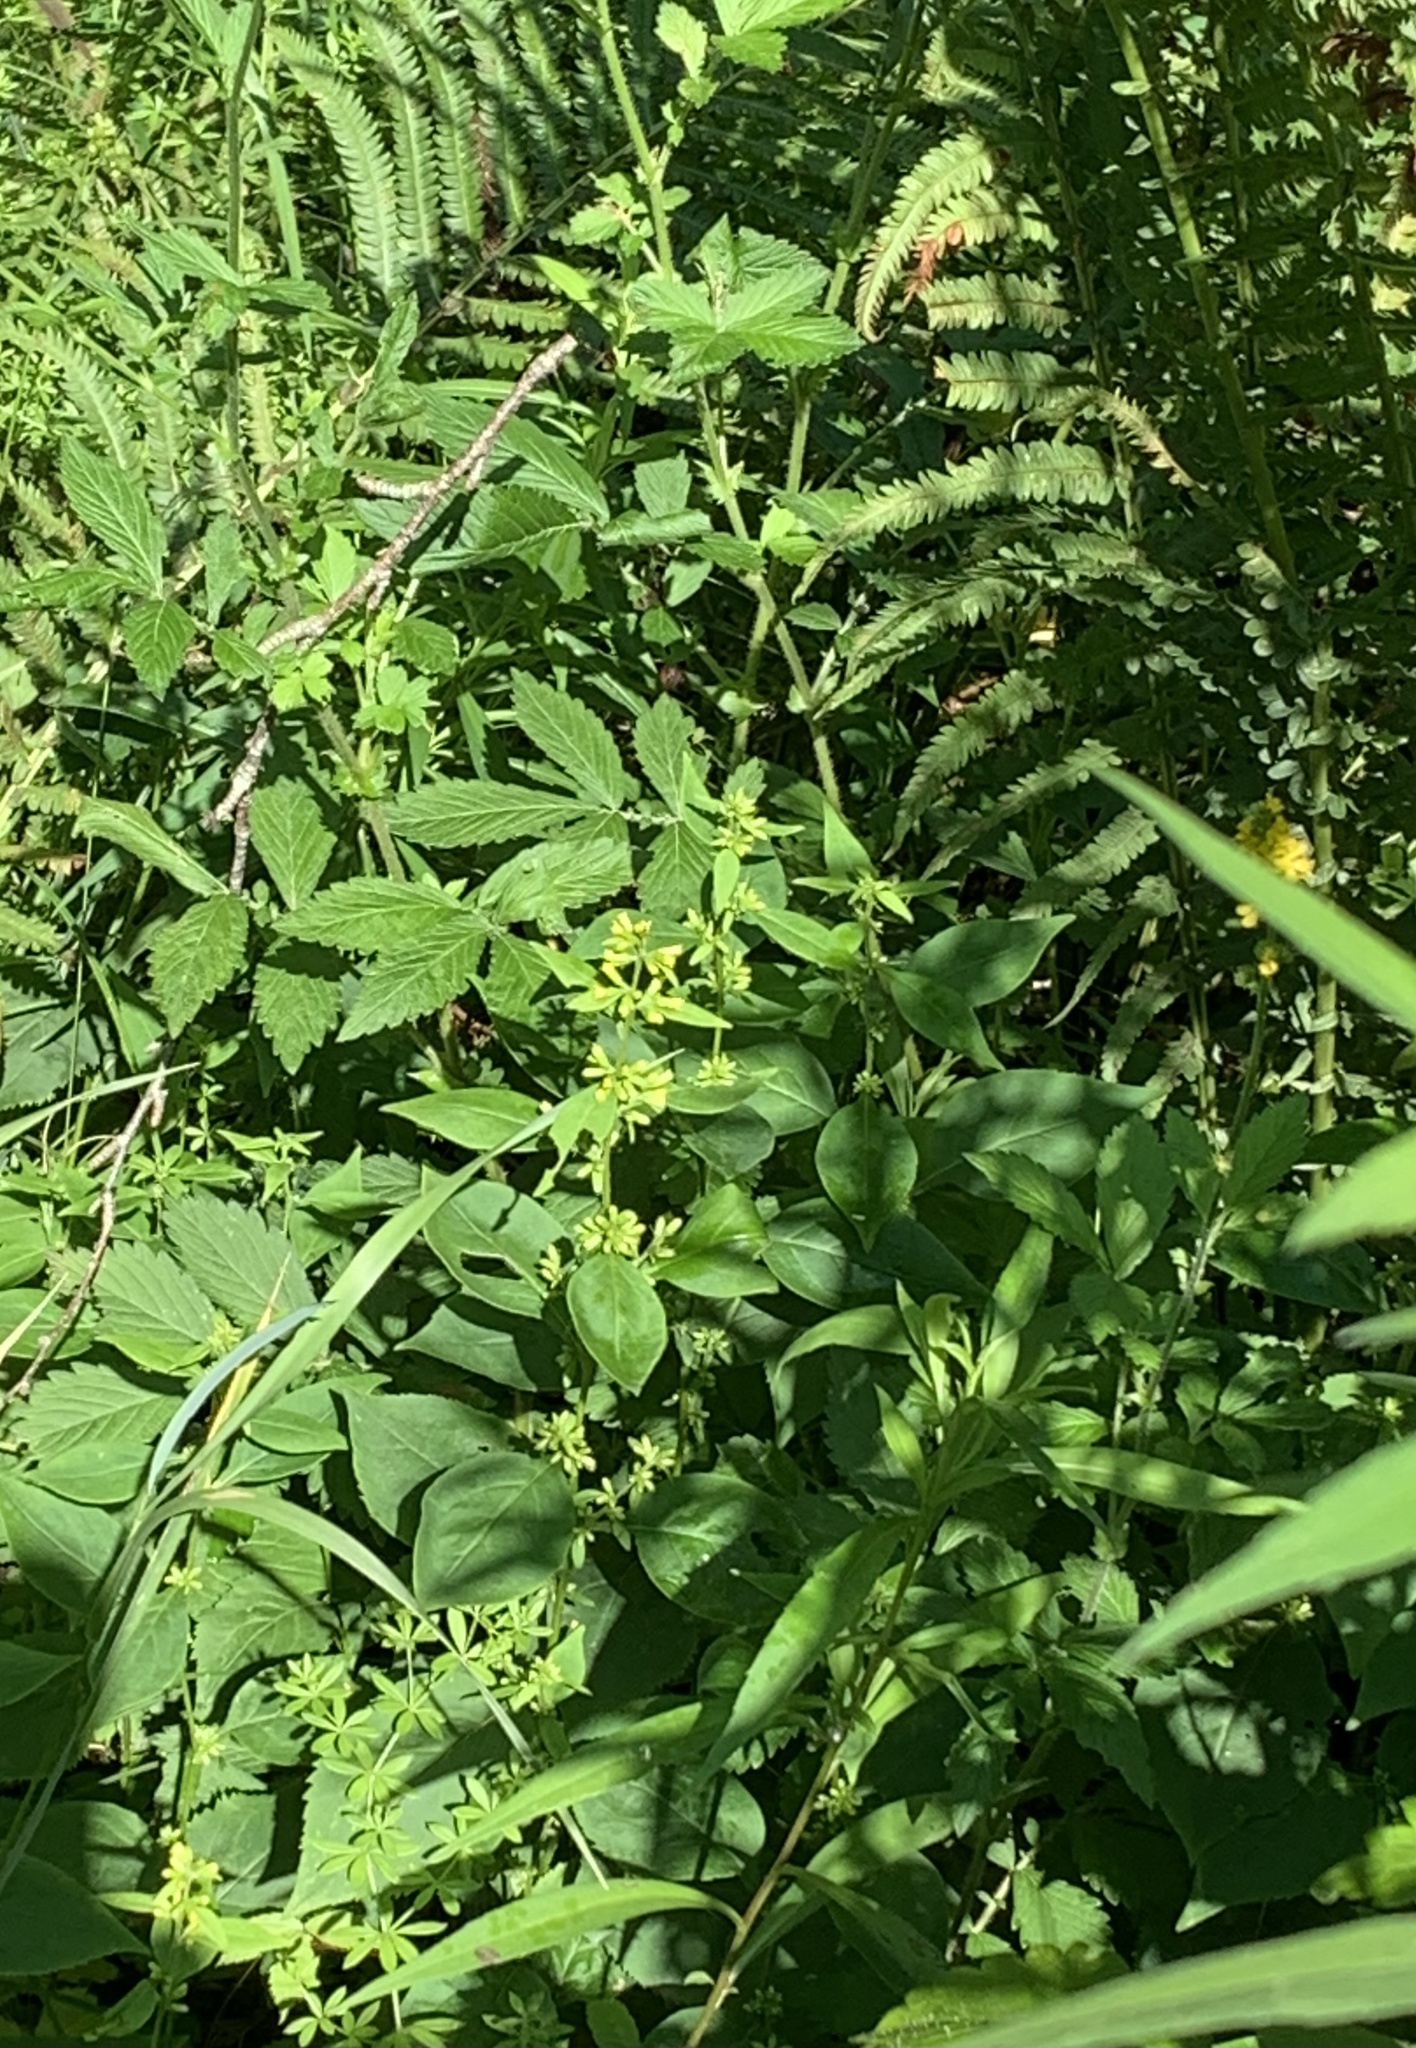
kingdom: Plantae
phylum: Tracheophyta
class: Magnoliopsida
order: Rosales
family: Rosaceae
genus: Agrimonia
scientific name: Agrimonia striata
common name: Britton's agrimony
